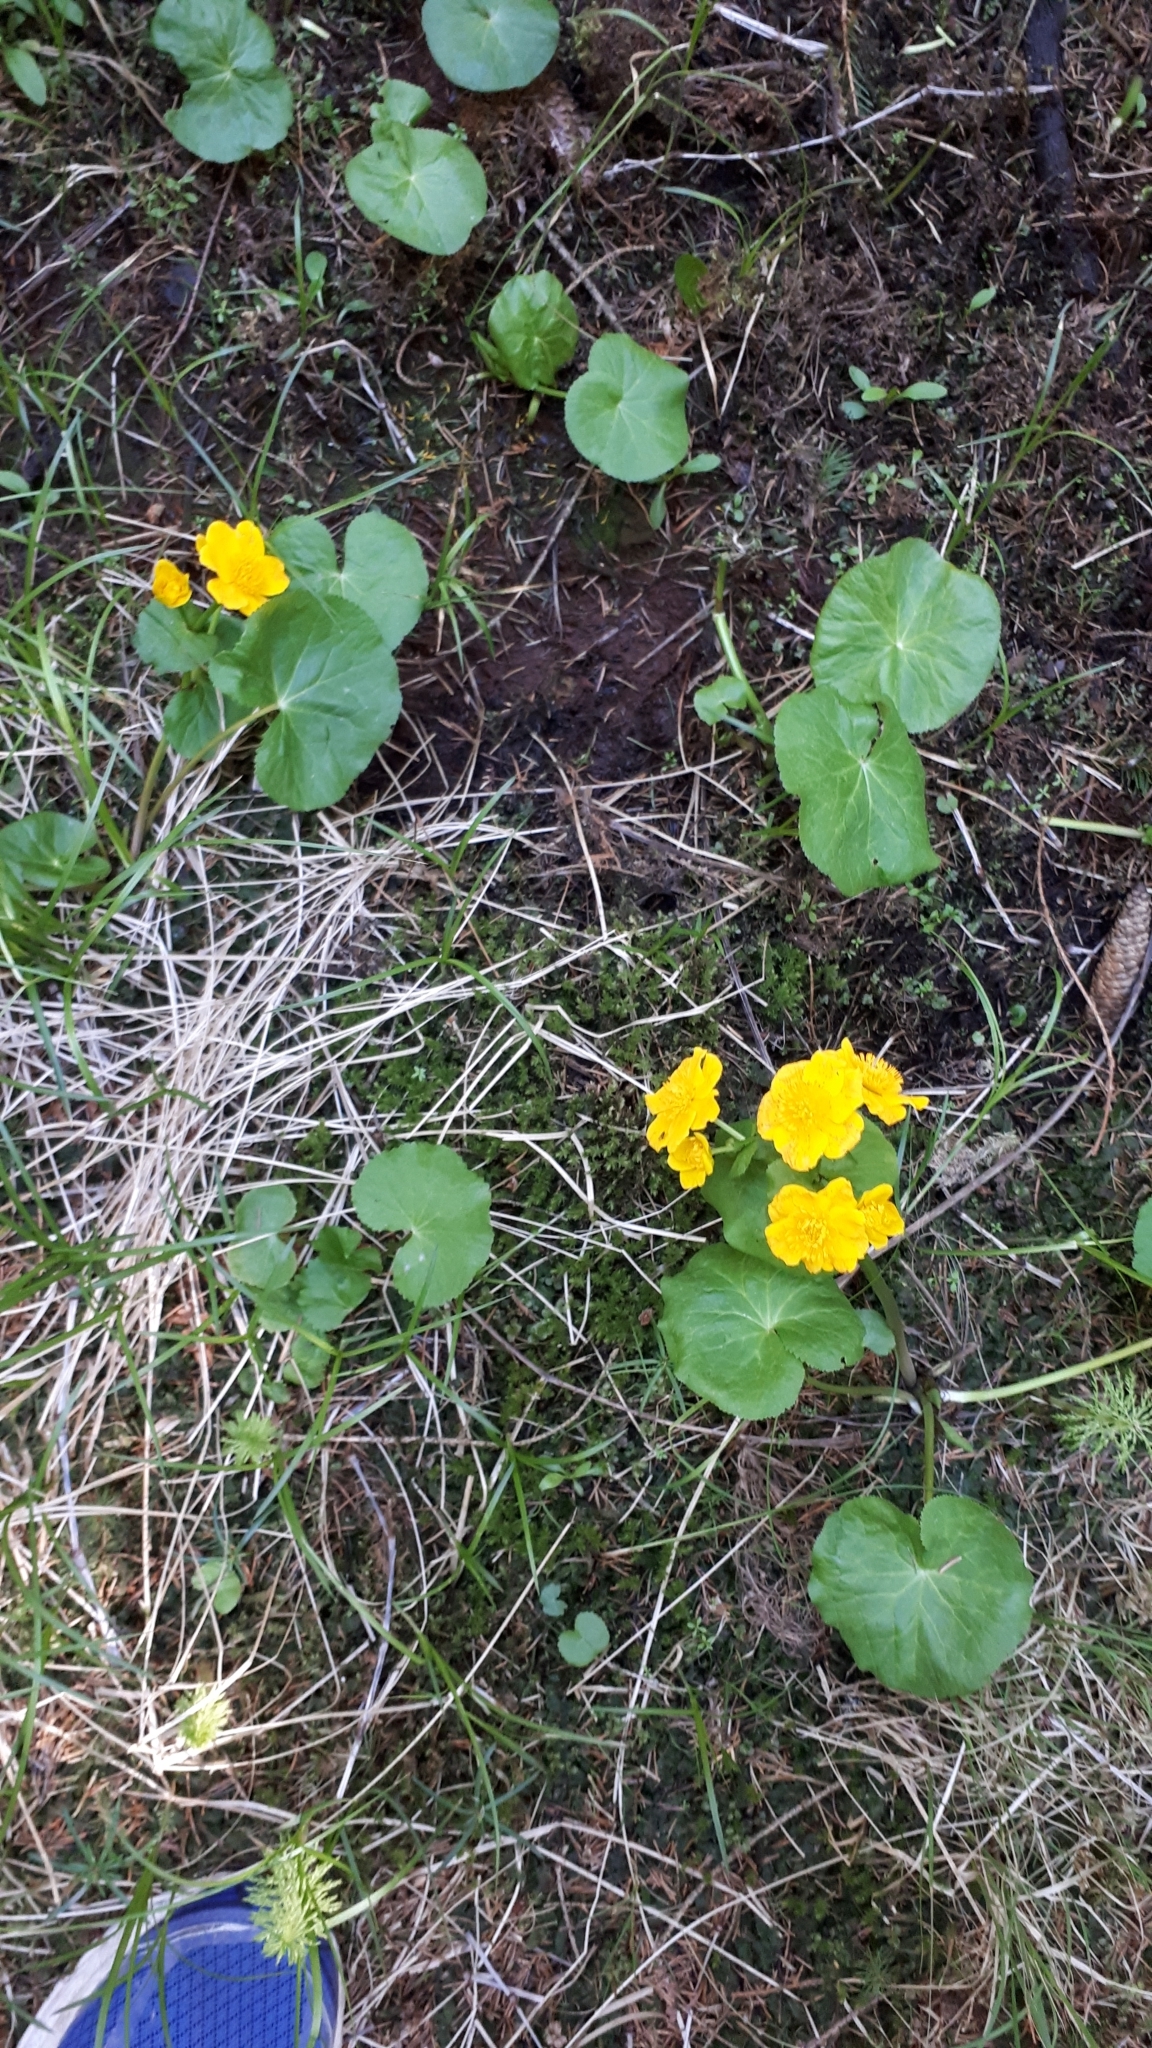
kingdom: Plantae
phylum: Tracheophyta
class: Magnoliopsida
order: Ranunculales
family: Ranunculaceae
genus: Caltha
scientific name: Caltha palustris
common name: Marsh marigold
